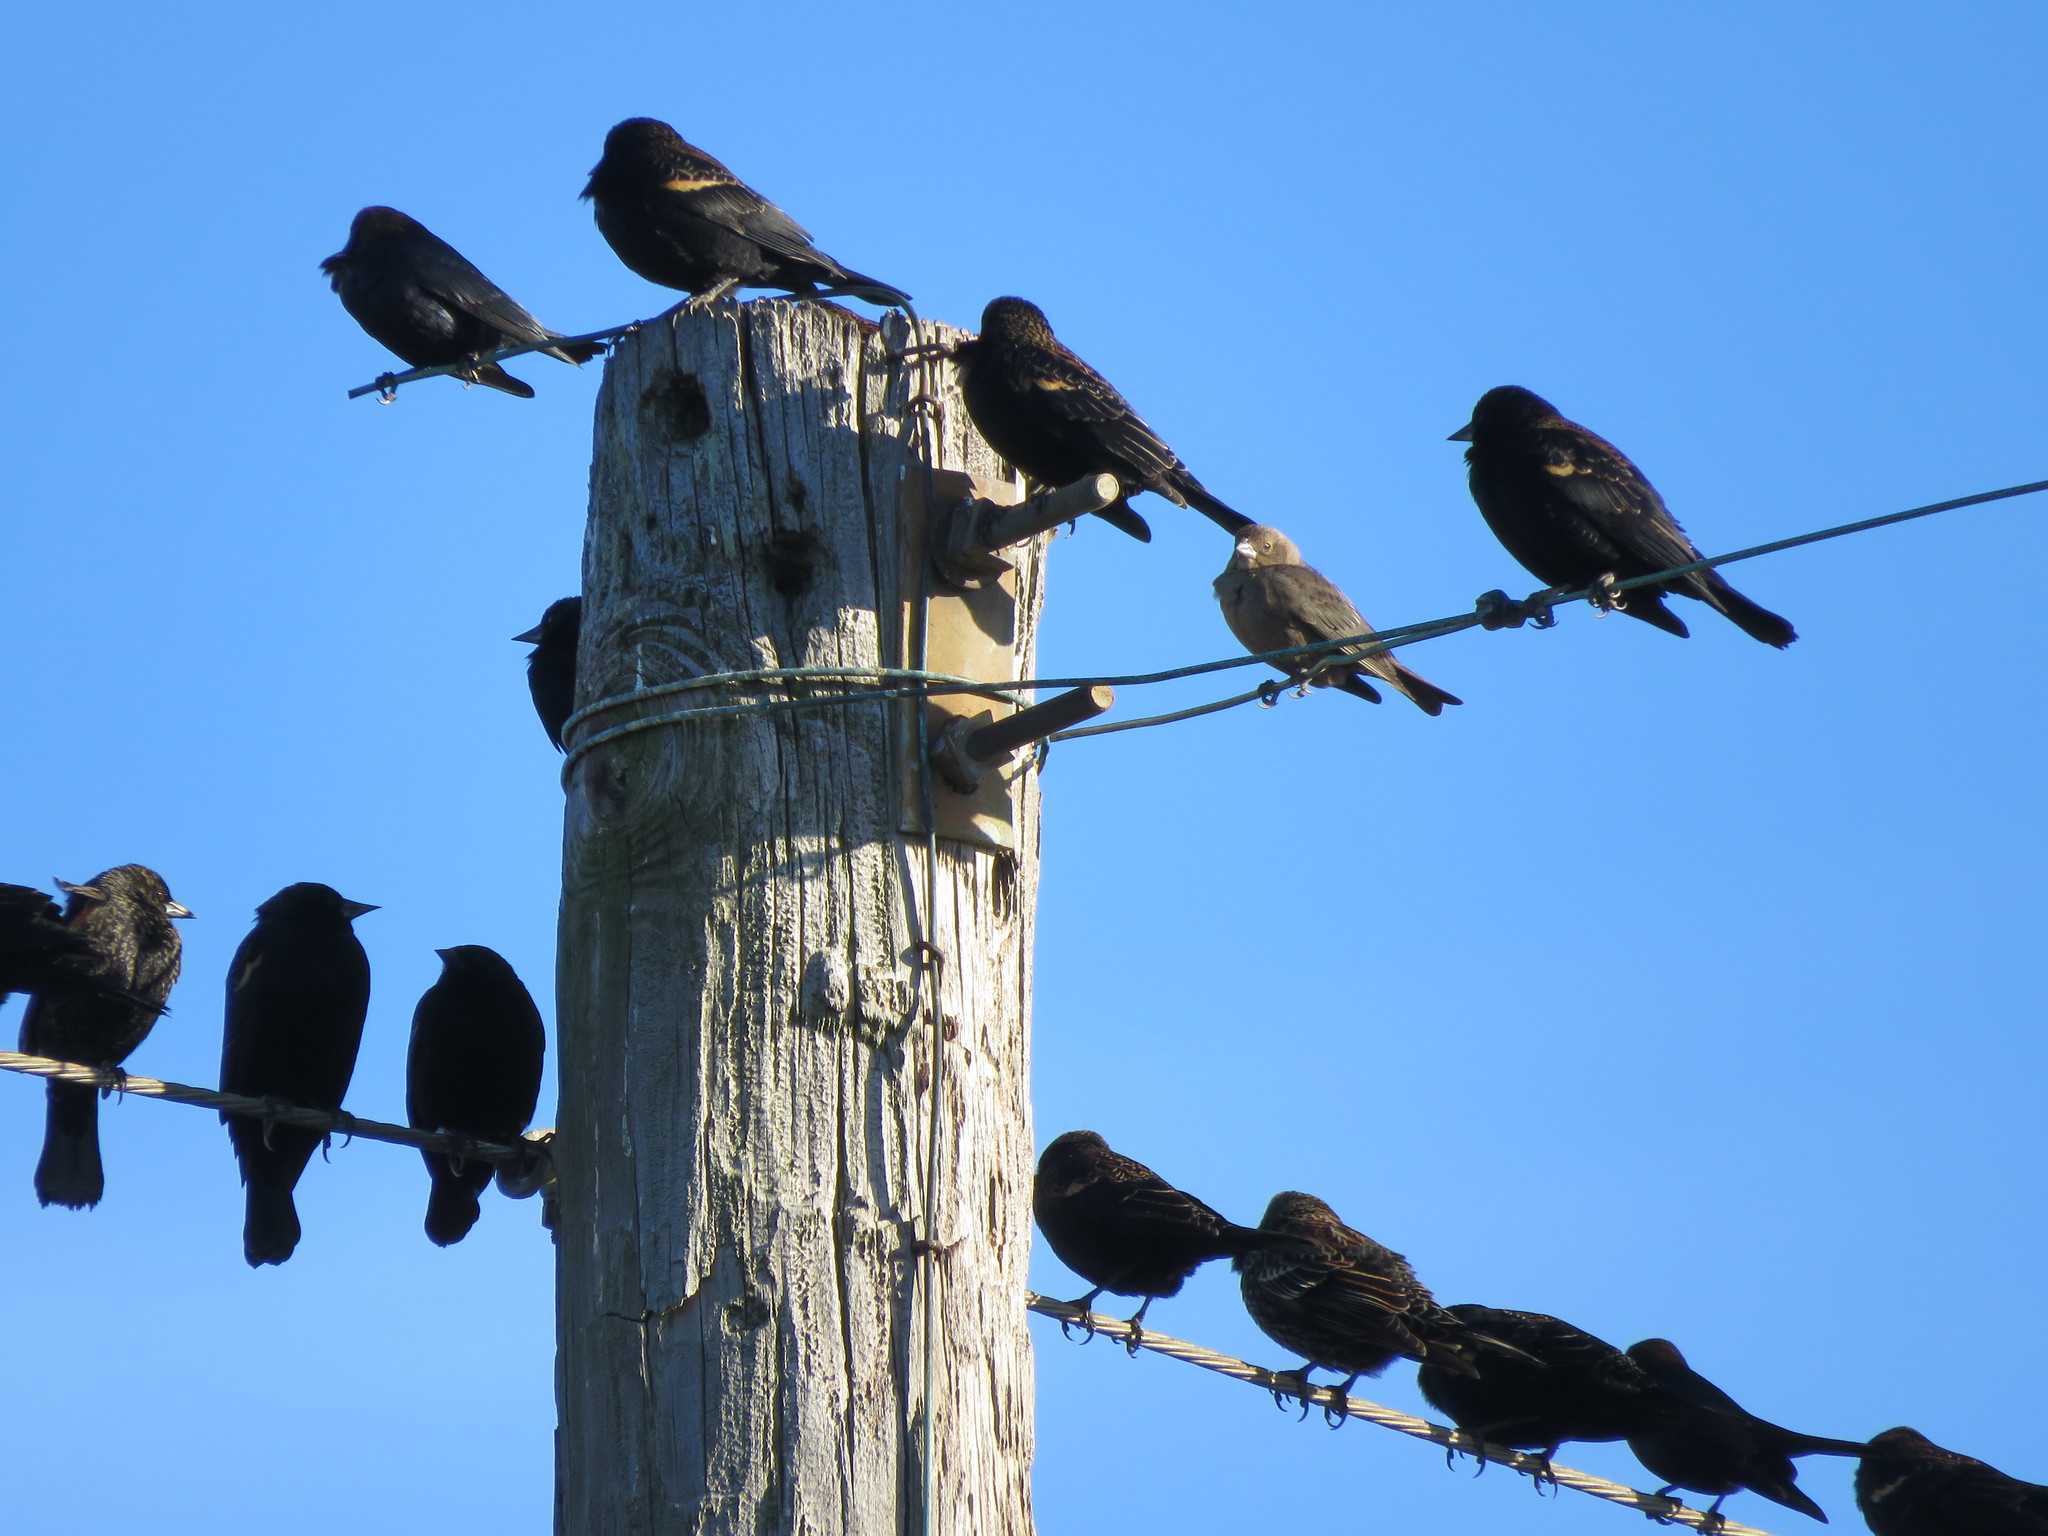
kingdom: Animalia
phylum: Chordata
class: Aves
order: Passeriformes
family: Icteridae
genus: Agelaius
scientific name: Agelaius phoeniceus
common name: Red-winged blackbird
